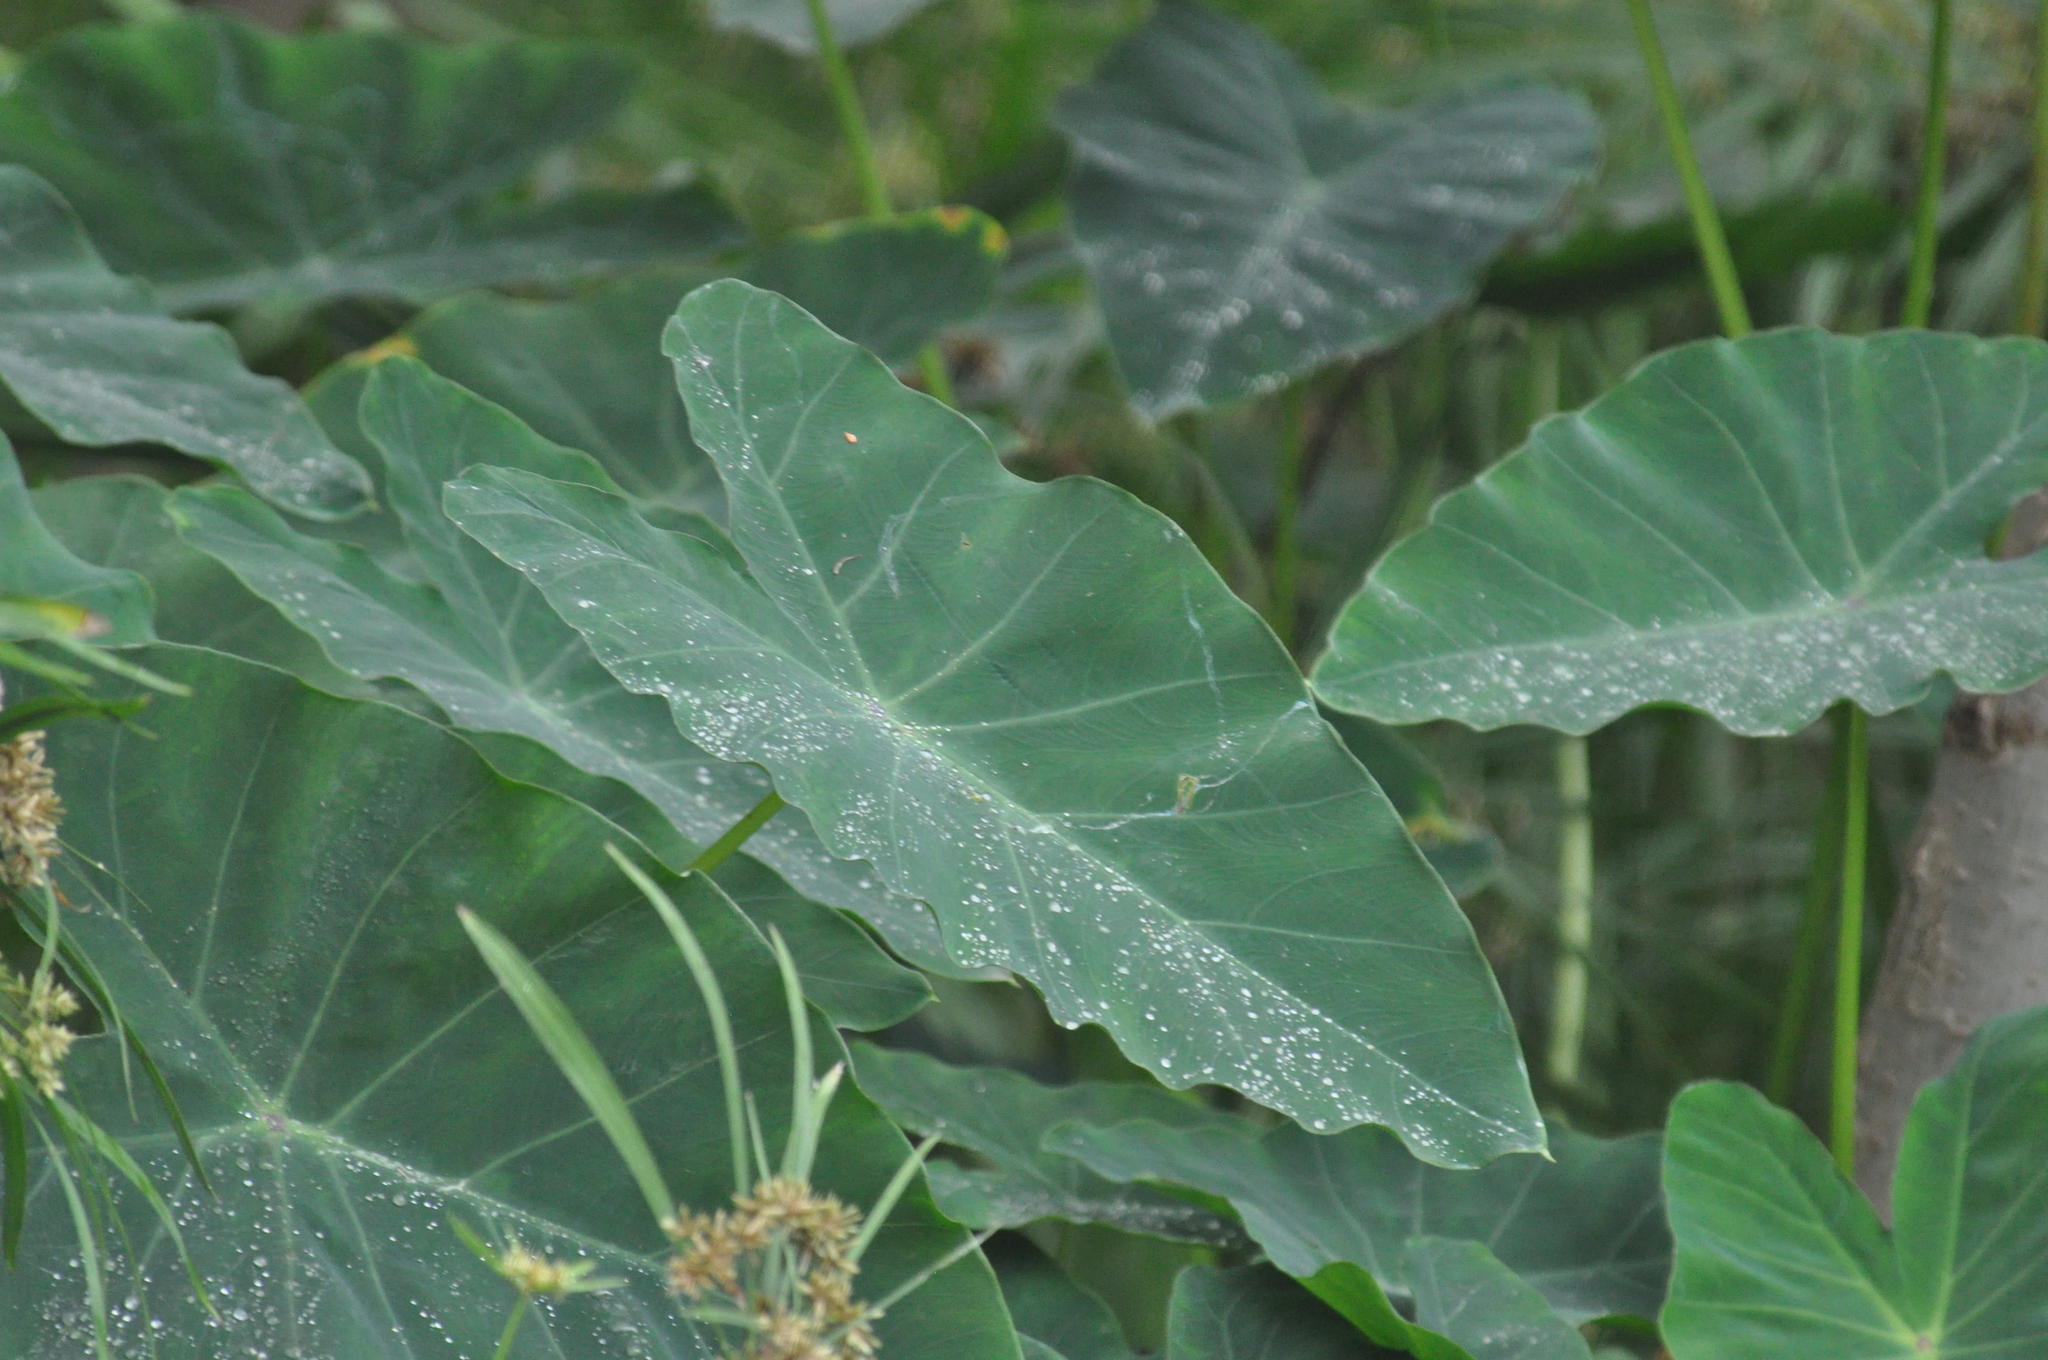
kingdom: Plantae
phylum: Tracheophyta
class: Liliopsida
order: Alismatales
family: Araceae
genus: Colocasia
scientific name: Colocasia esculenta
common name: Taro
